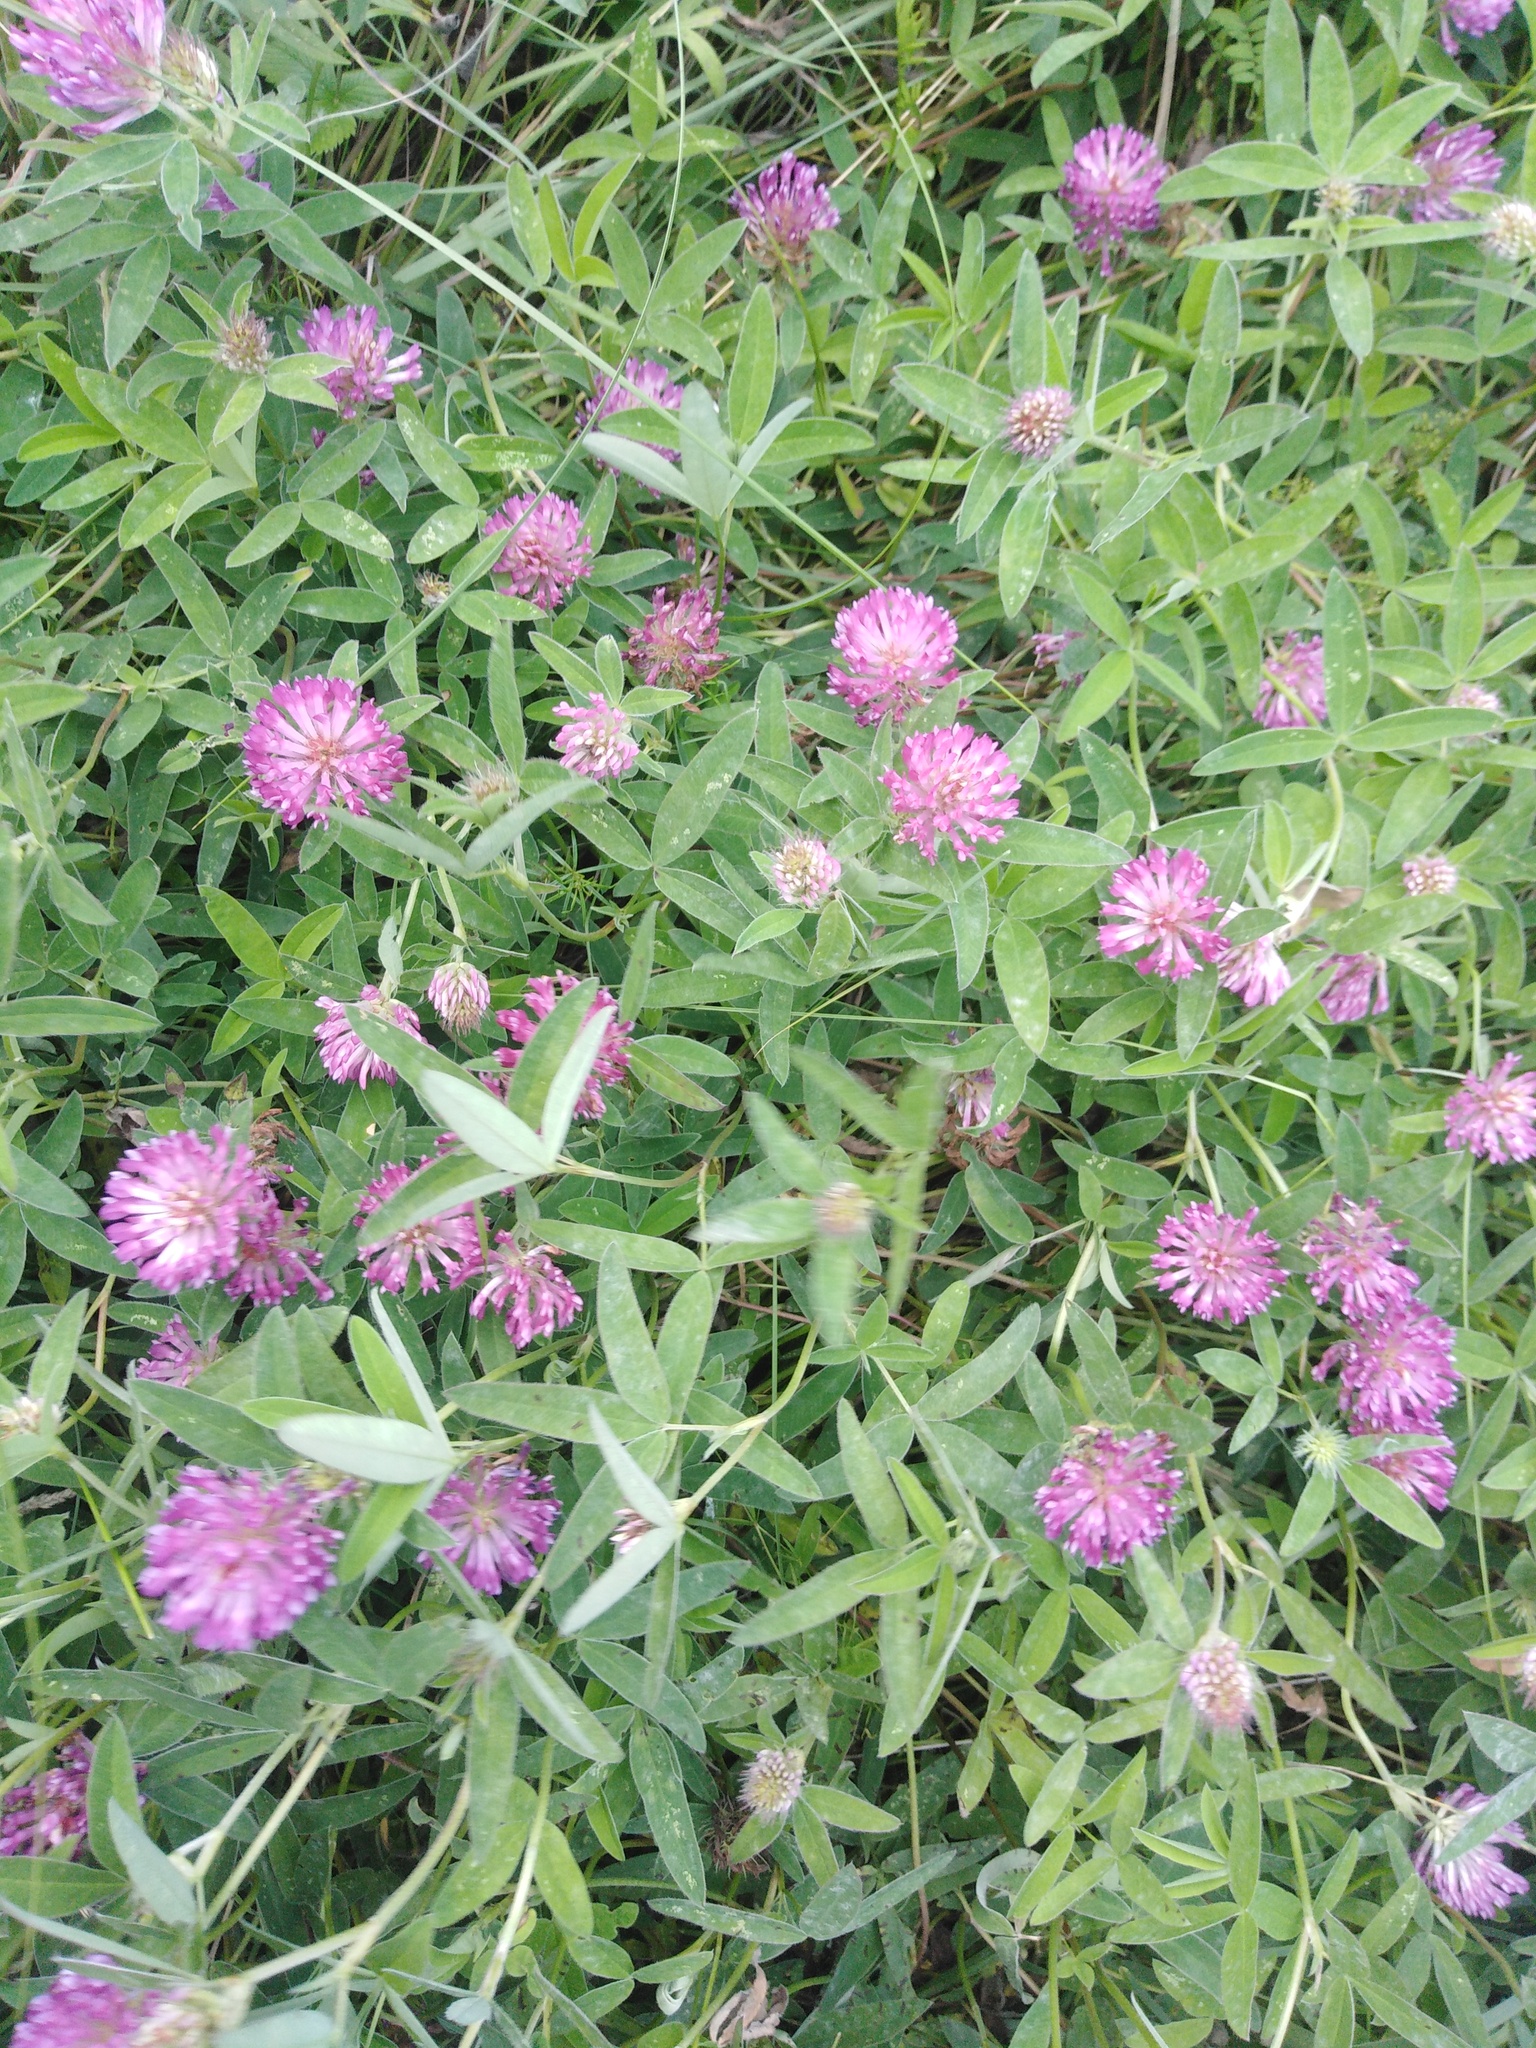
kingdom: Plantae
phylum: Tracheophyta
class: Magnoliopsida
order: Fabales
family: Fabaceae
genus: Trifolium
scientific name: Trifolium medium
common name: Zigzag clover
